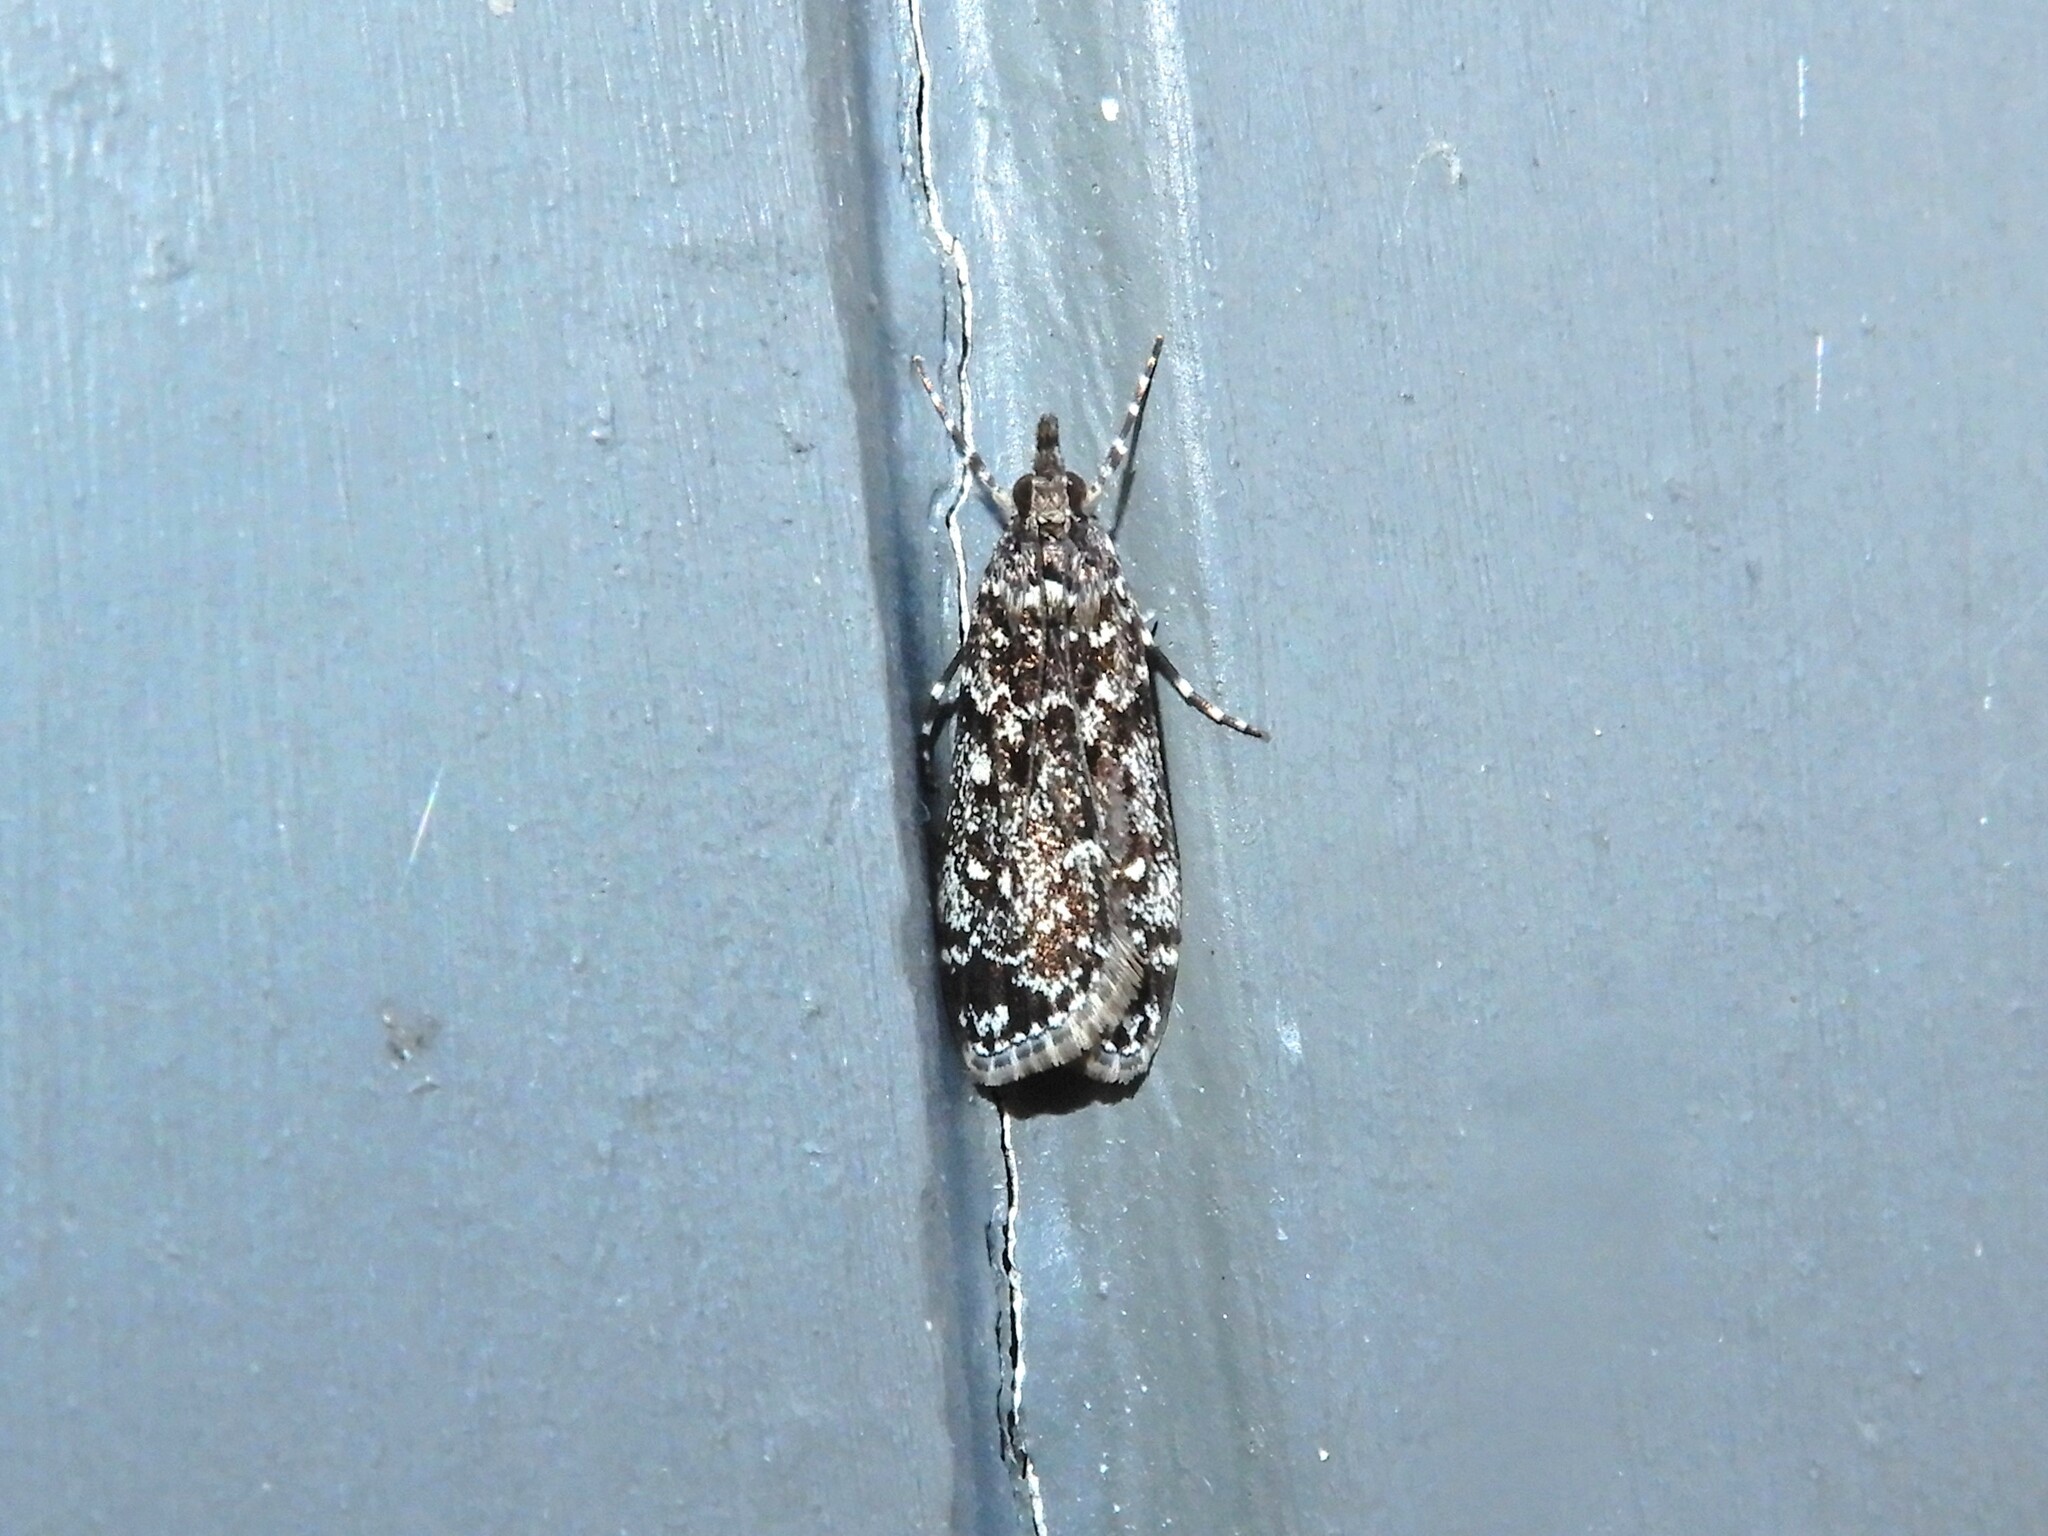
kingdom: Animalia
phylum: Arthropoda
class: Insecta
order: Lepidoptera
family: Crambidae
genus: Eudonia
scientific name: Eudonia philerga
